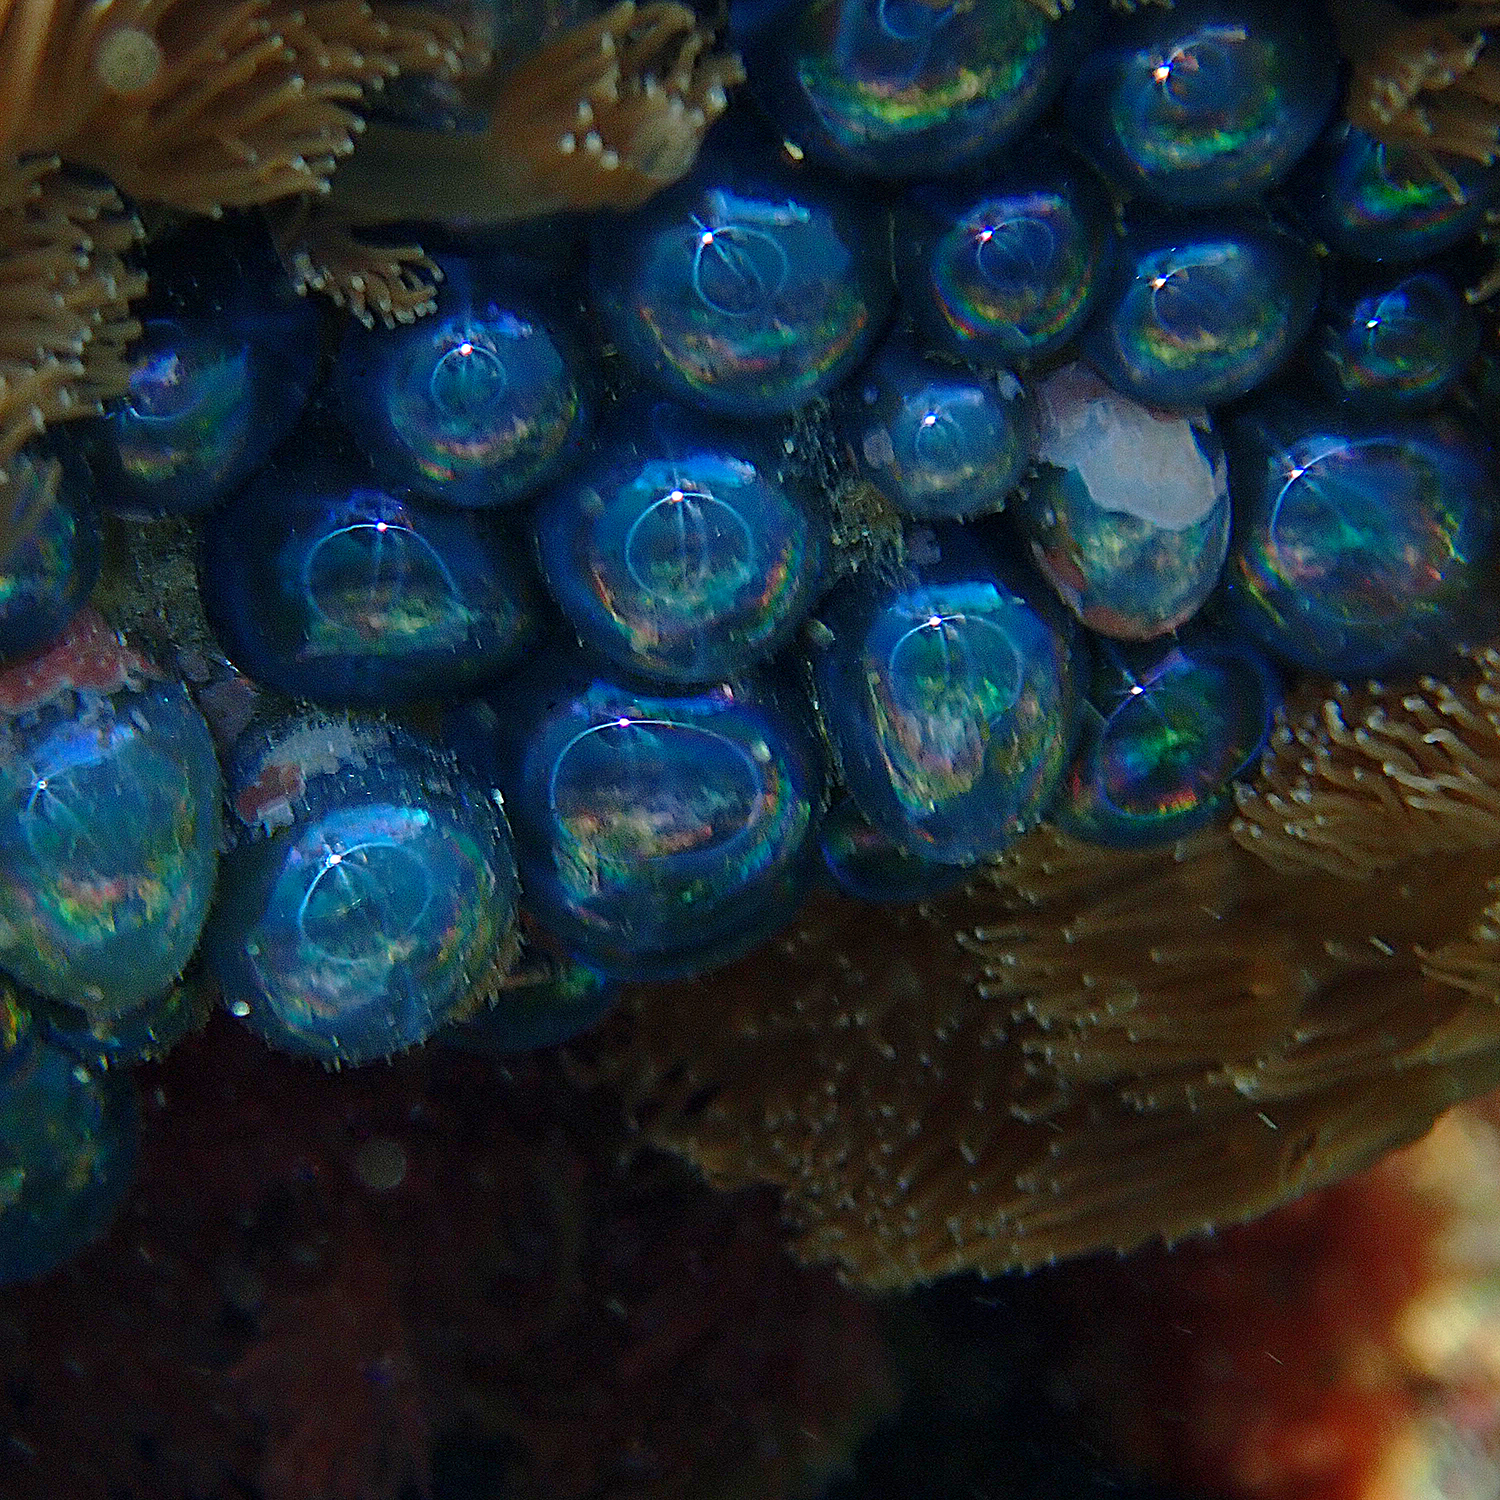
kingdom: Plantae
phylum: Chlorophyta
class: Ulvophyceae
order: Siphonocladales
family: Valoniaceae
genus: Valonia
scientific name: Valonia ventricosa
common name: Sea pearl
